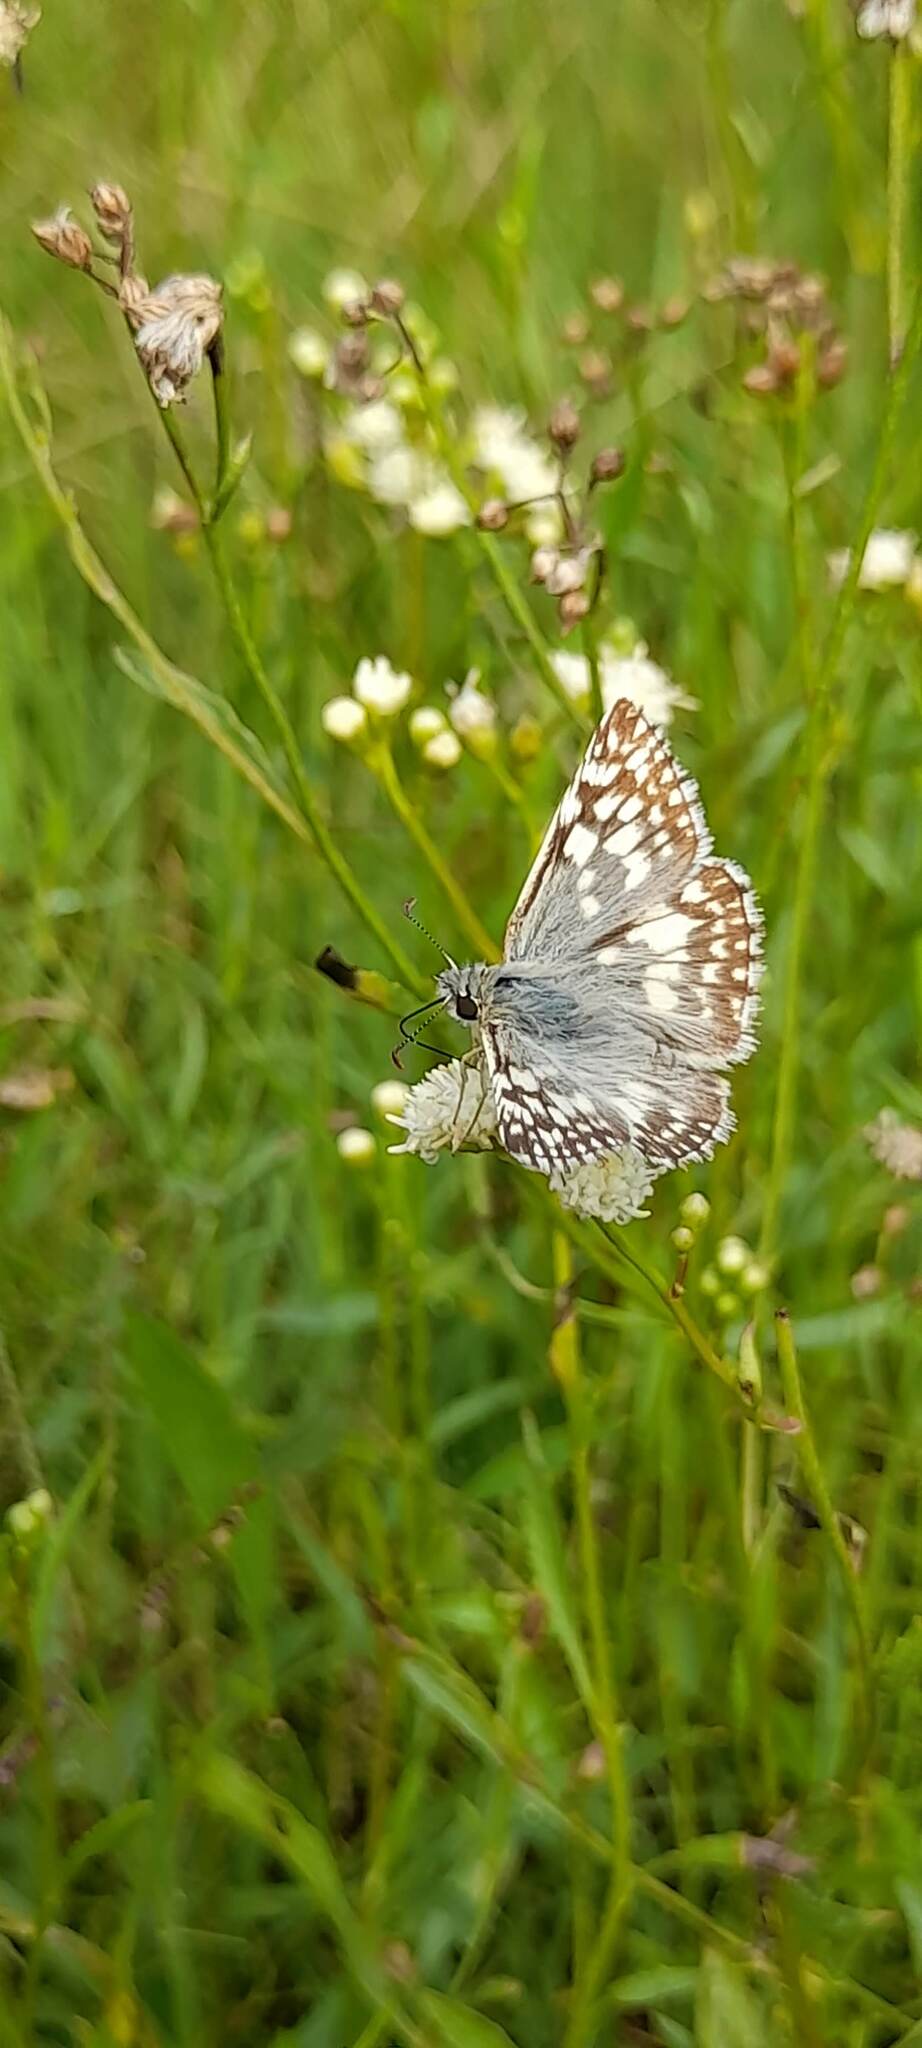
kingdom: Animalia
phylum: Arthropoda
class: Insecta
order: Lepidoptera
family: Hesperiidae
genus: Heliopetes
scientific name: Heliopetes americanus
